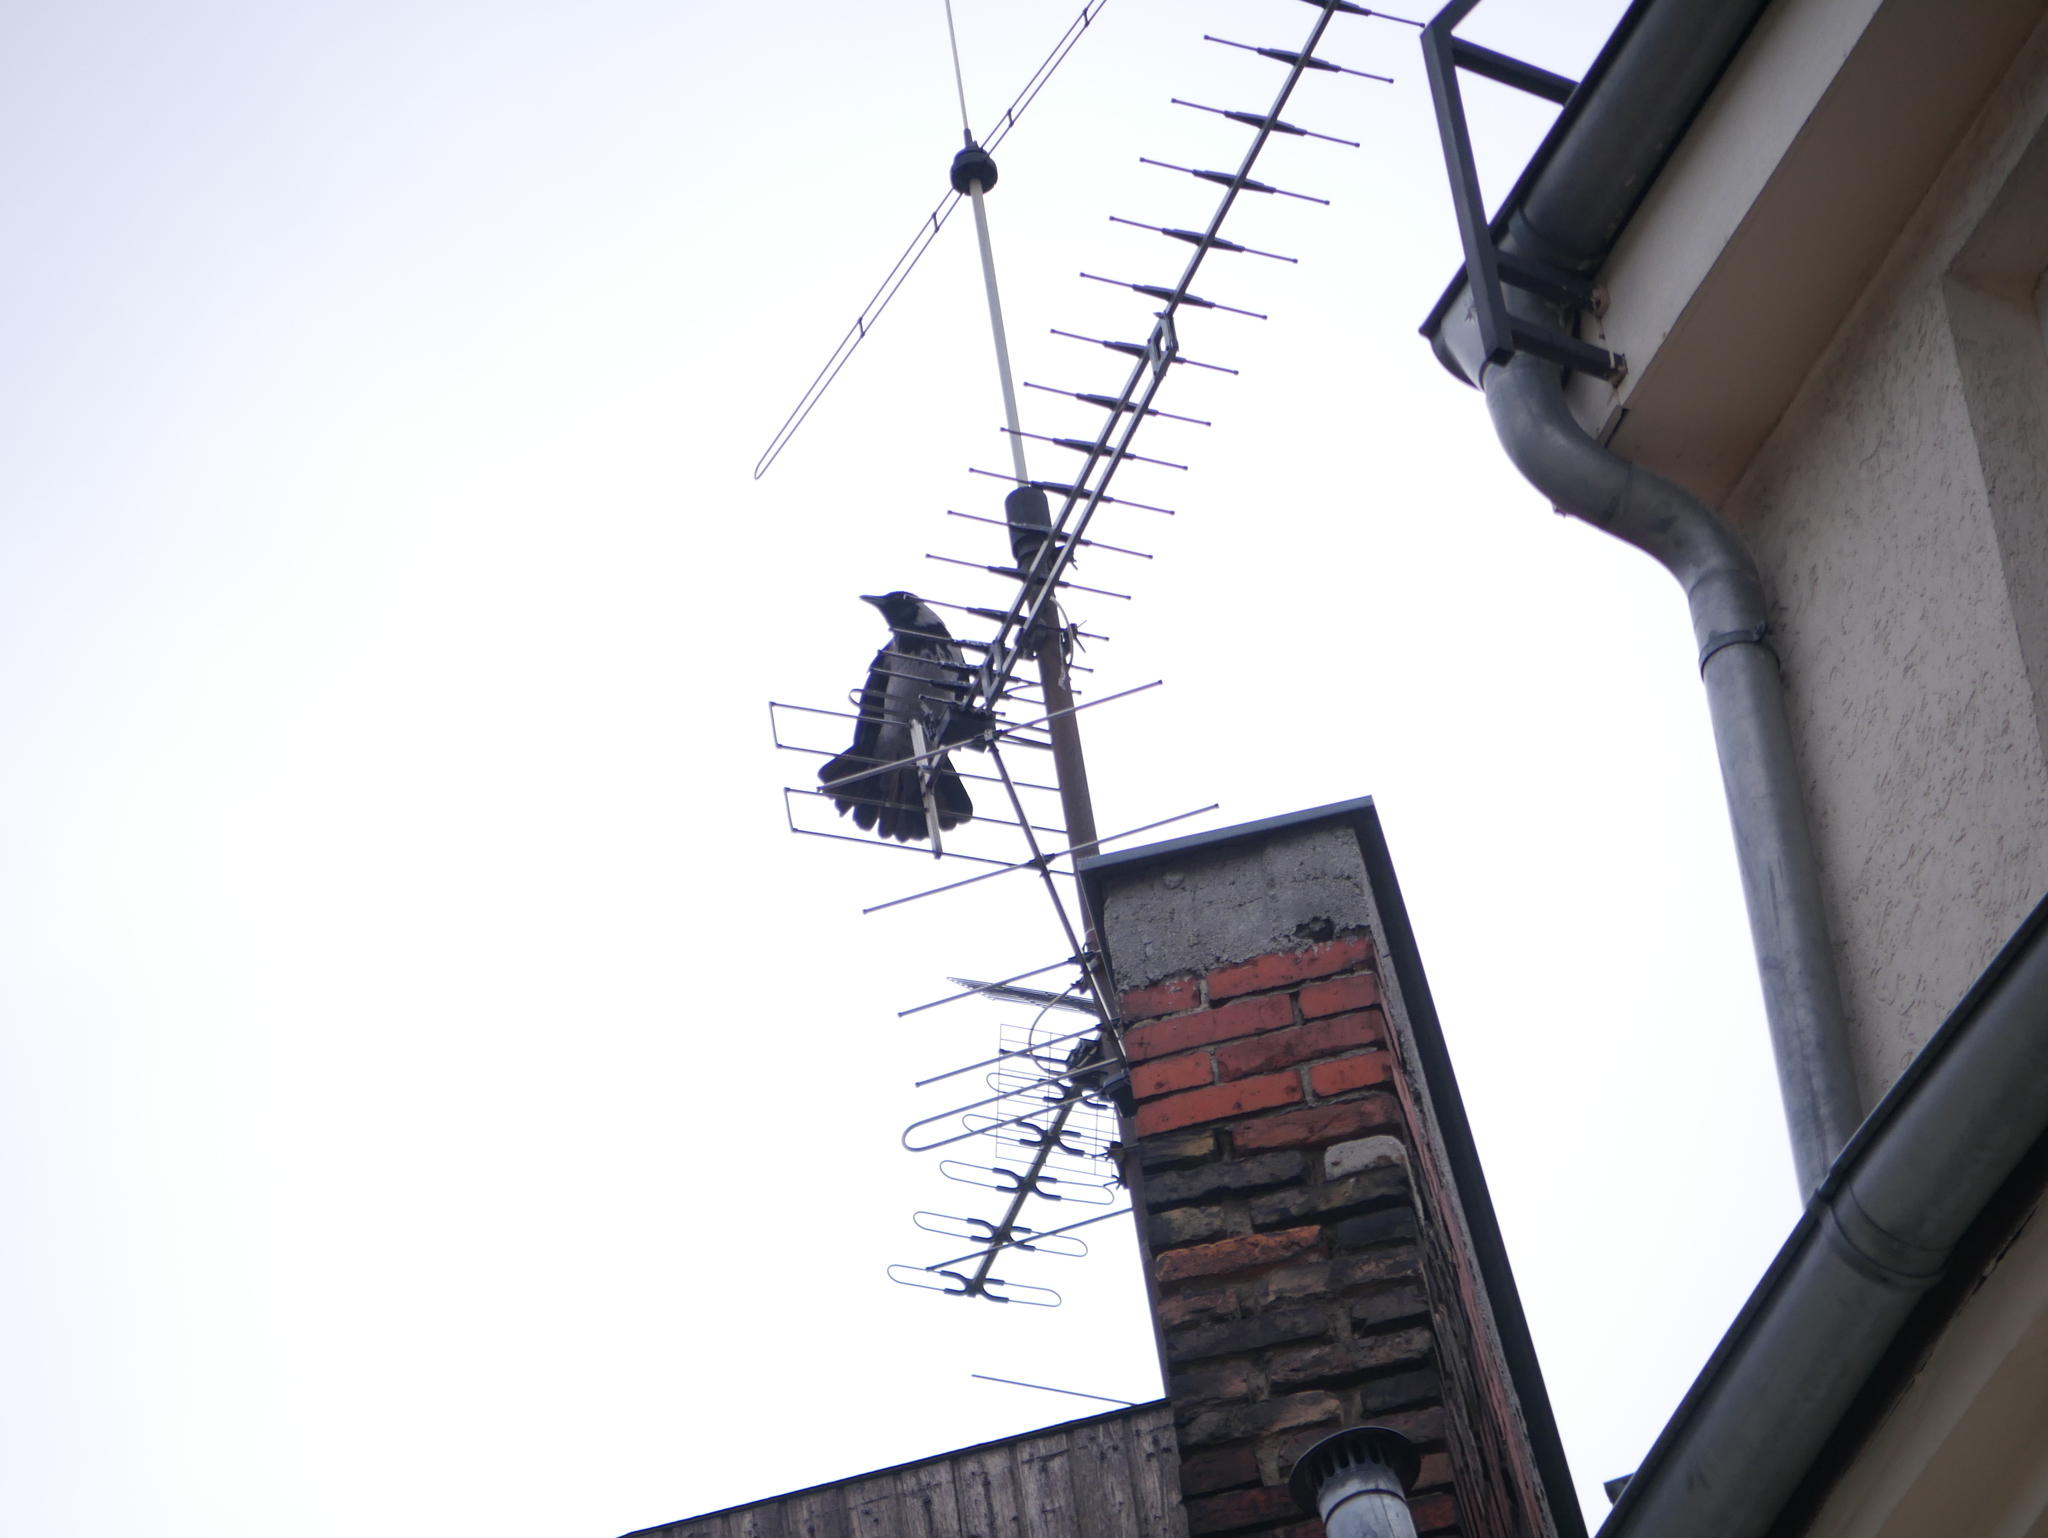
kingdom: Animalia
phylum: Chordata
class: Aves
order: Passeriformes
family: Corvidae
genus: Corvus
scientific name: Corvus cornix
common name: Hooded crow
